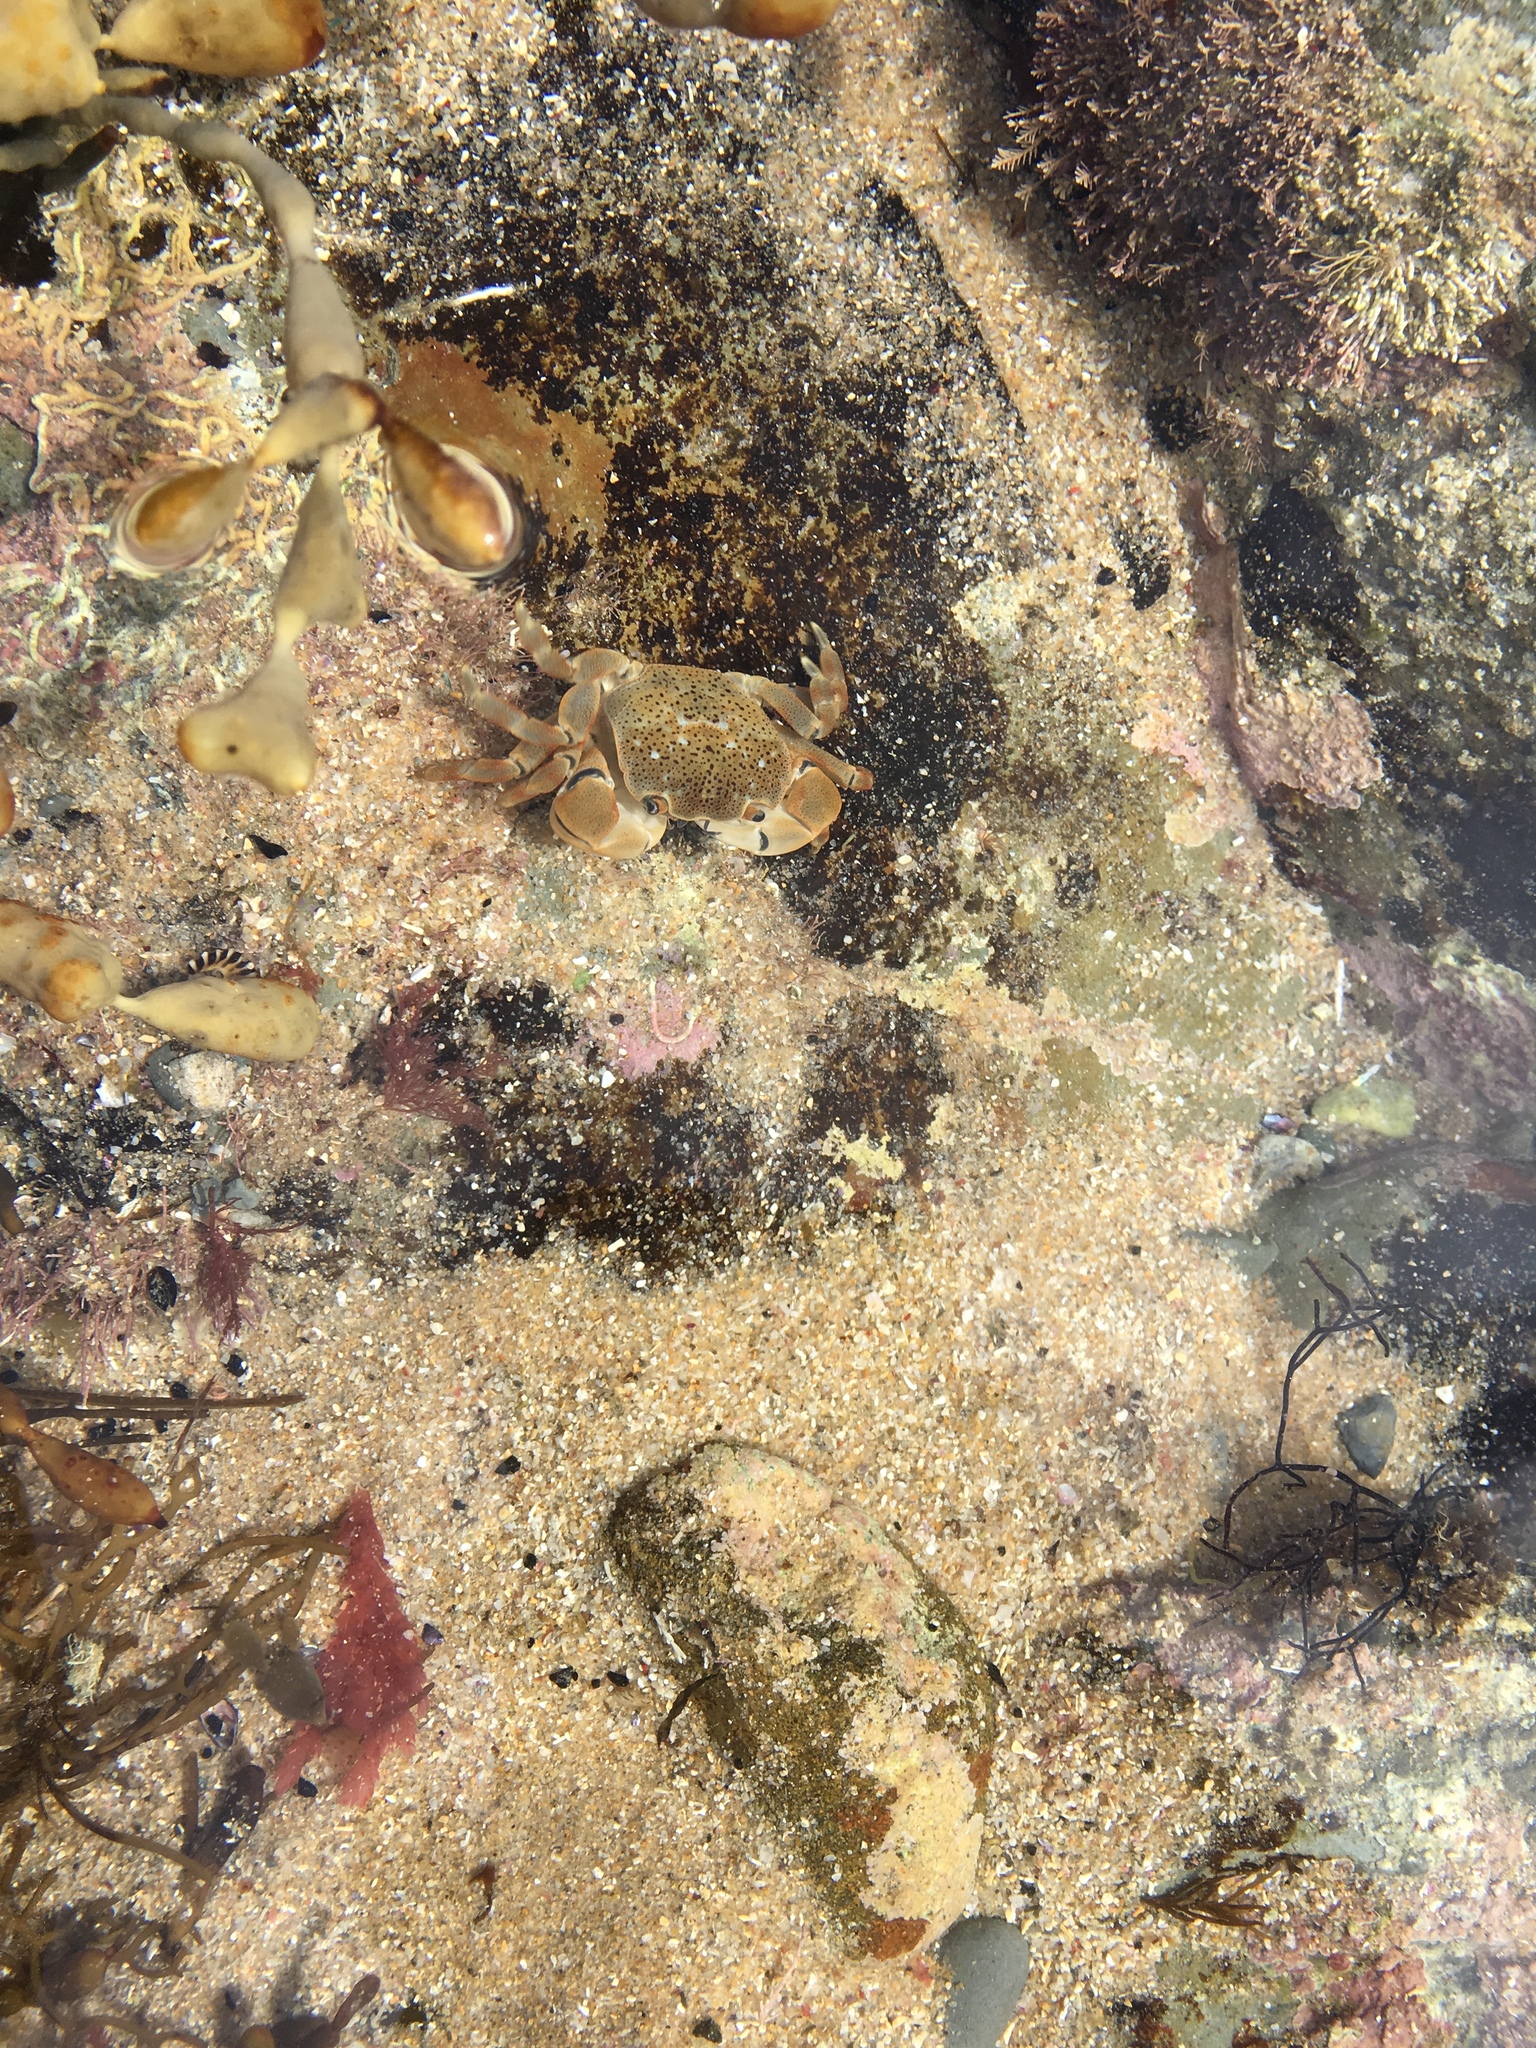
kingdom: Animalia
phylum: Arthropoda
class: Malacostraca
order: Decapoda
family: Varunidae
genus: Paragrapsus
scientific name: Paragrapsus quadridentatus
